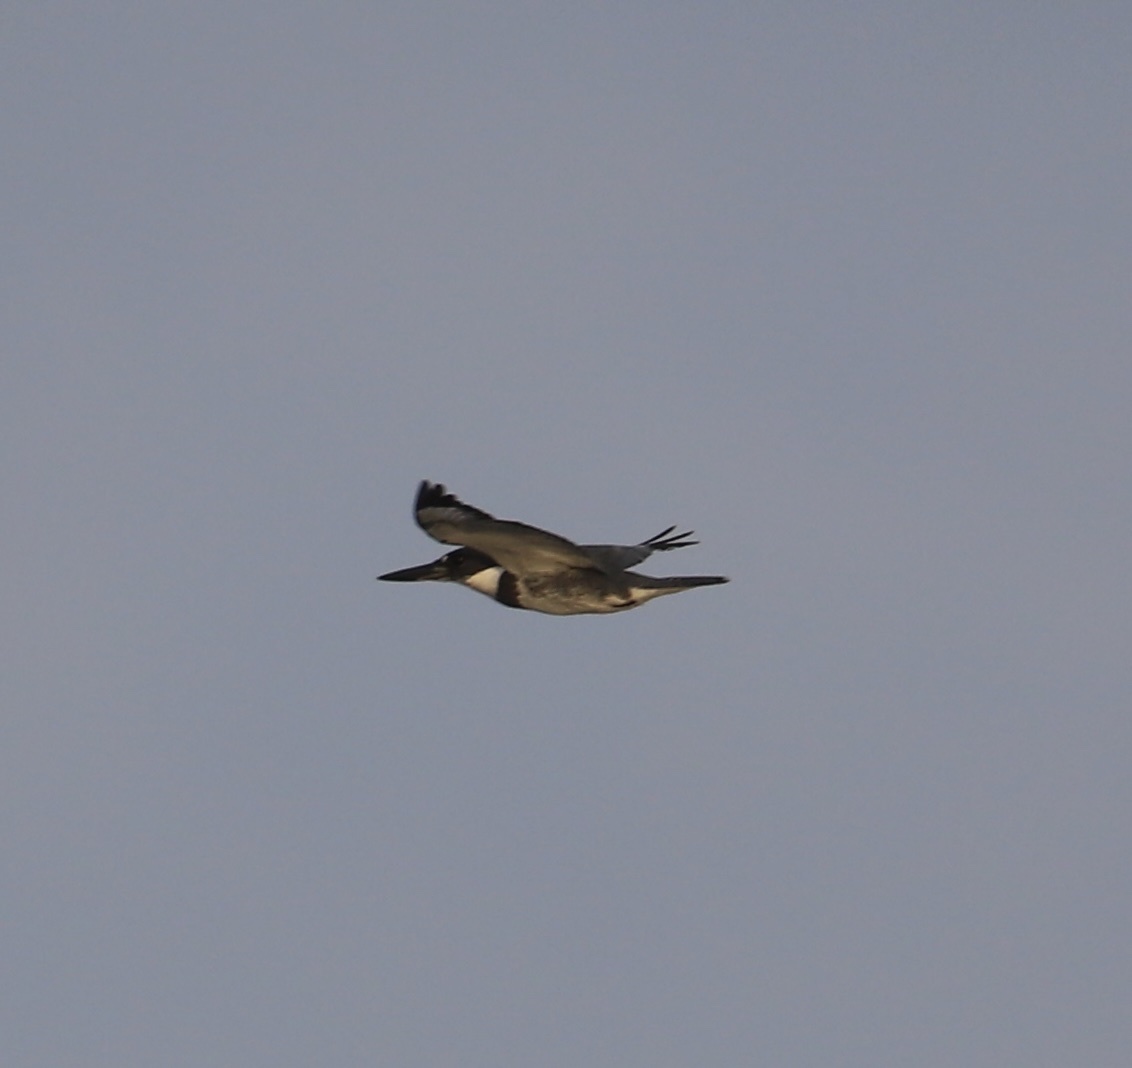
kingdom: Animalia
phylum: Chordata
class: Aves
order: Coraciiformes
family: Alcedinidae
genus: Megaceryle
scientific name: Megaceryle alcyon
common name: Belted kingfisher
